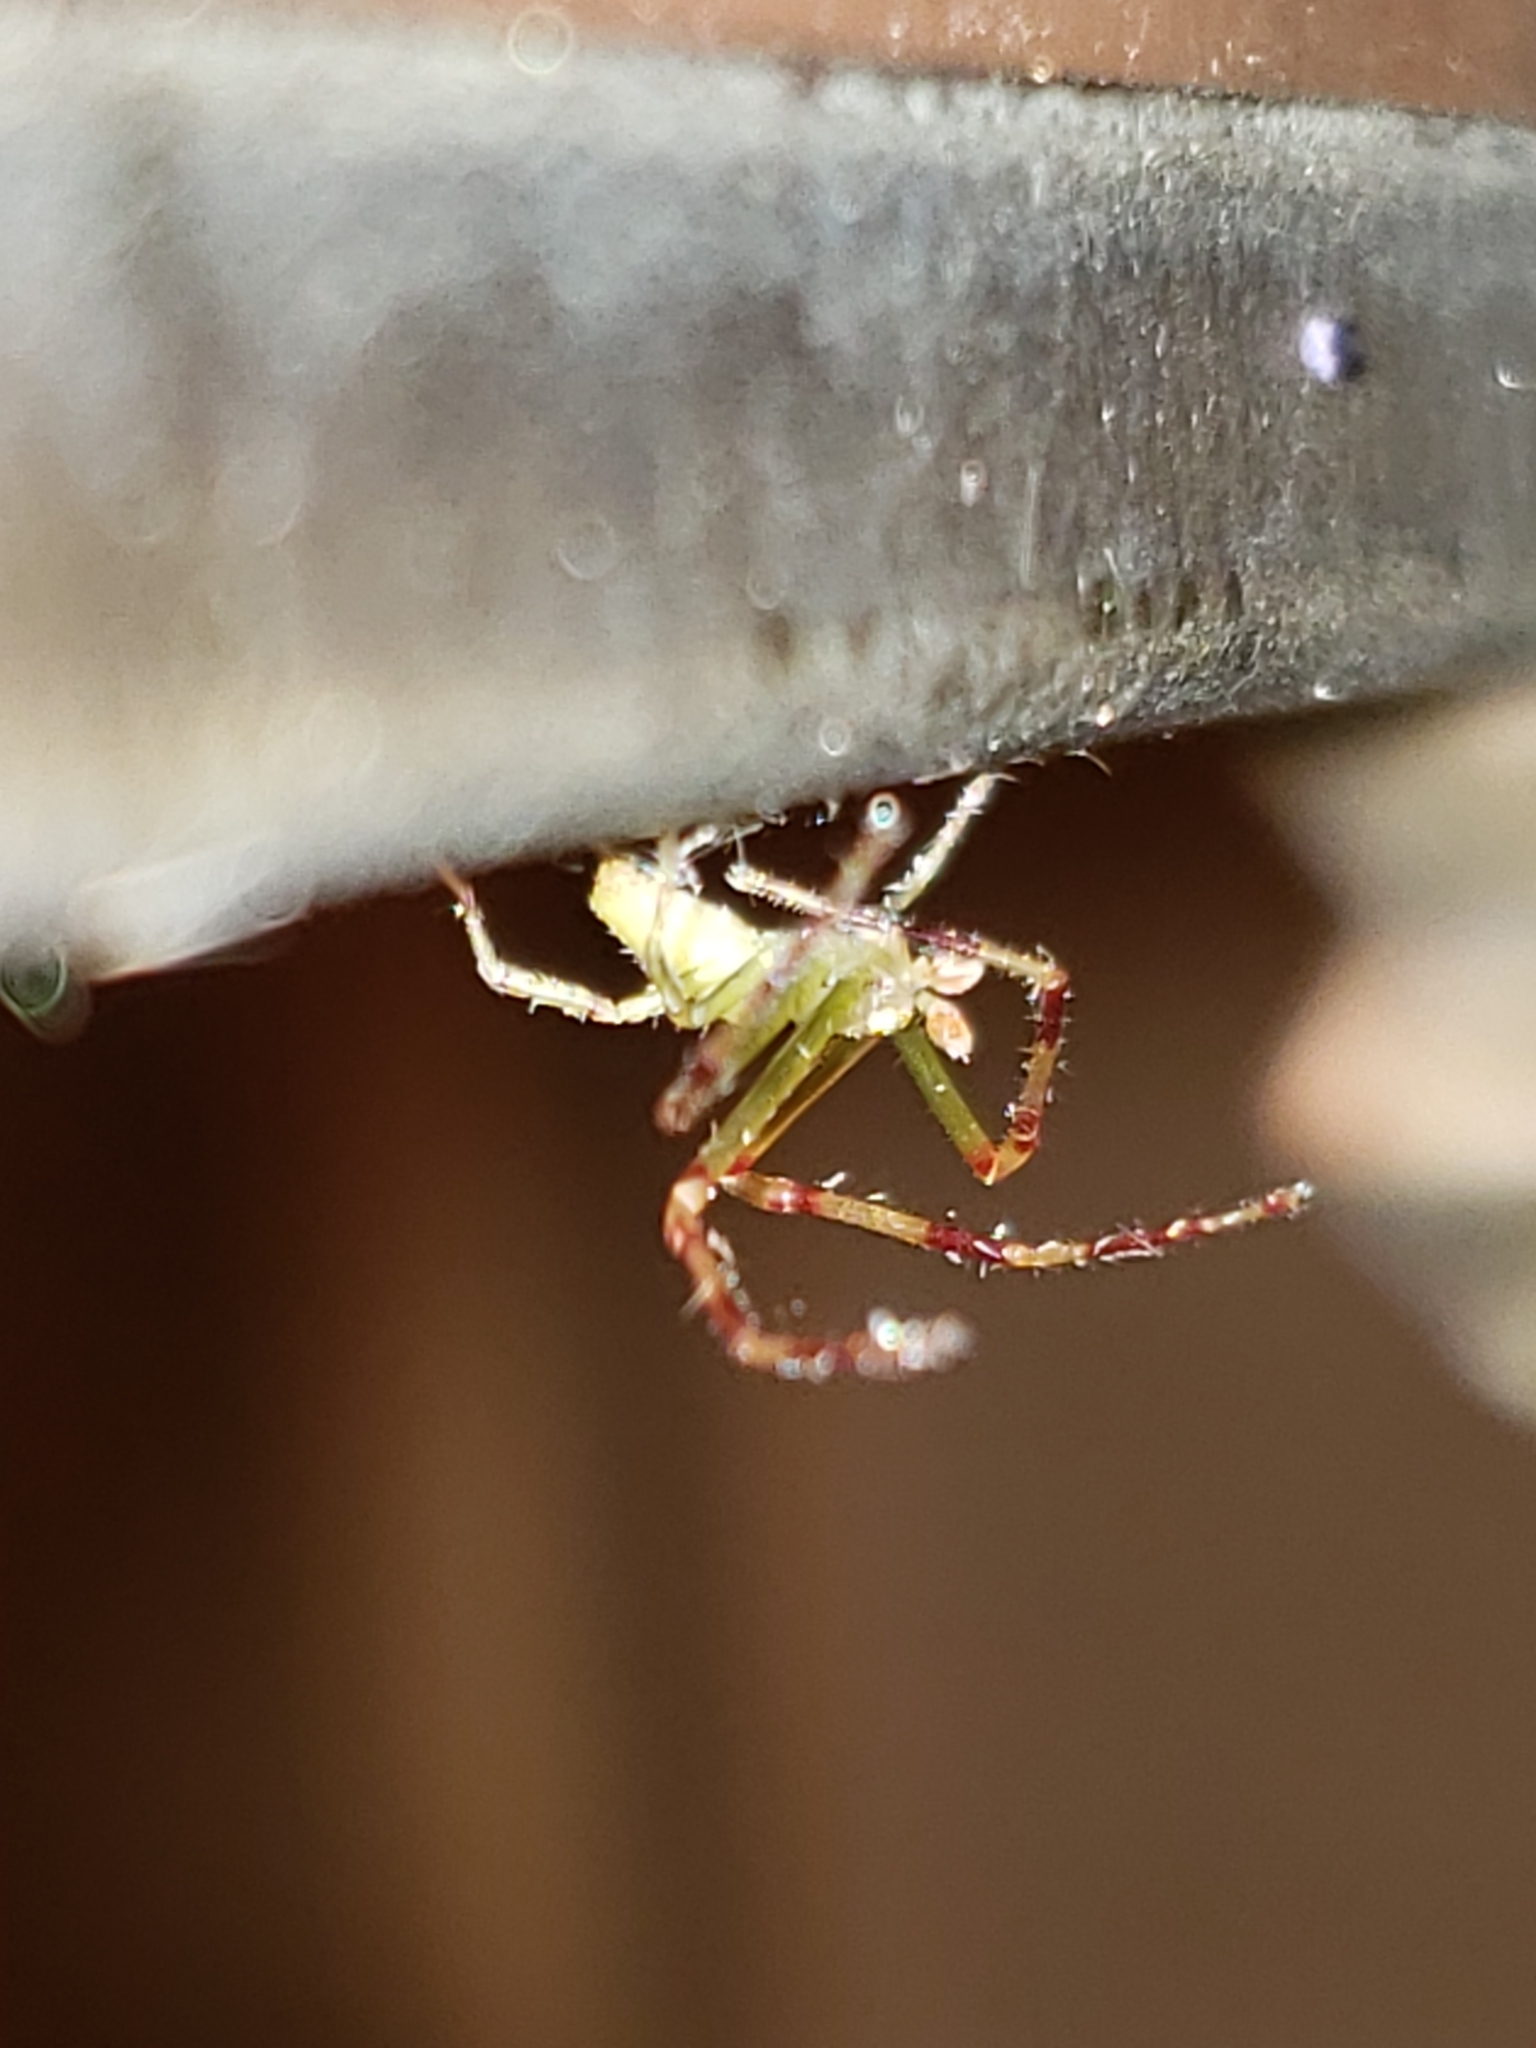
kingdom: Animalia
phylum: Arthropoda
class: Arachnida
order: Araneae
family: Thomisidae
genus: Misumessus
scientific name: Misumessus oblongus
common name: American green crab spider
